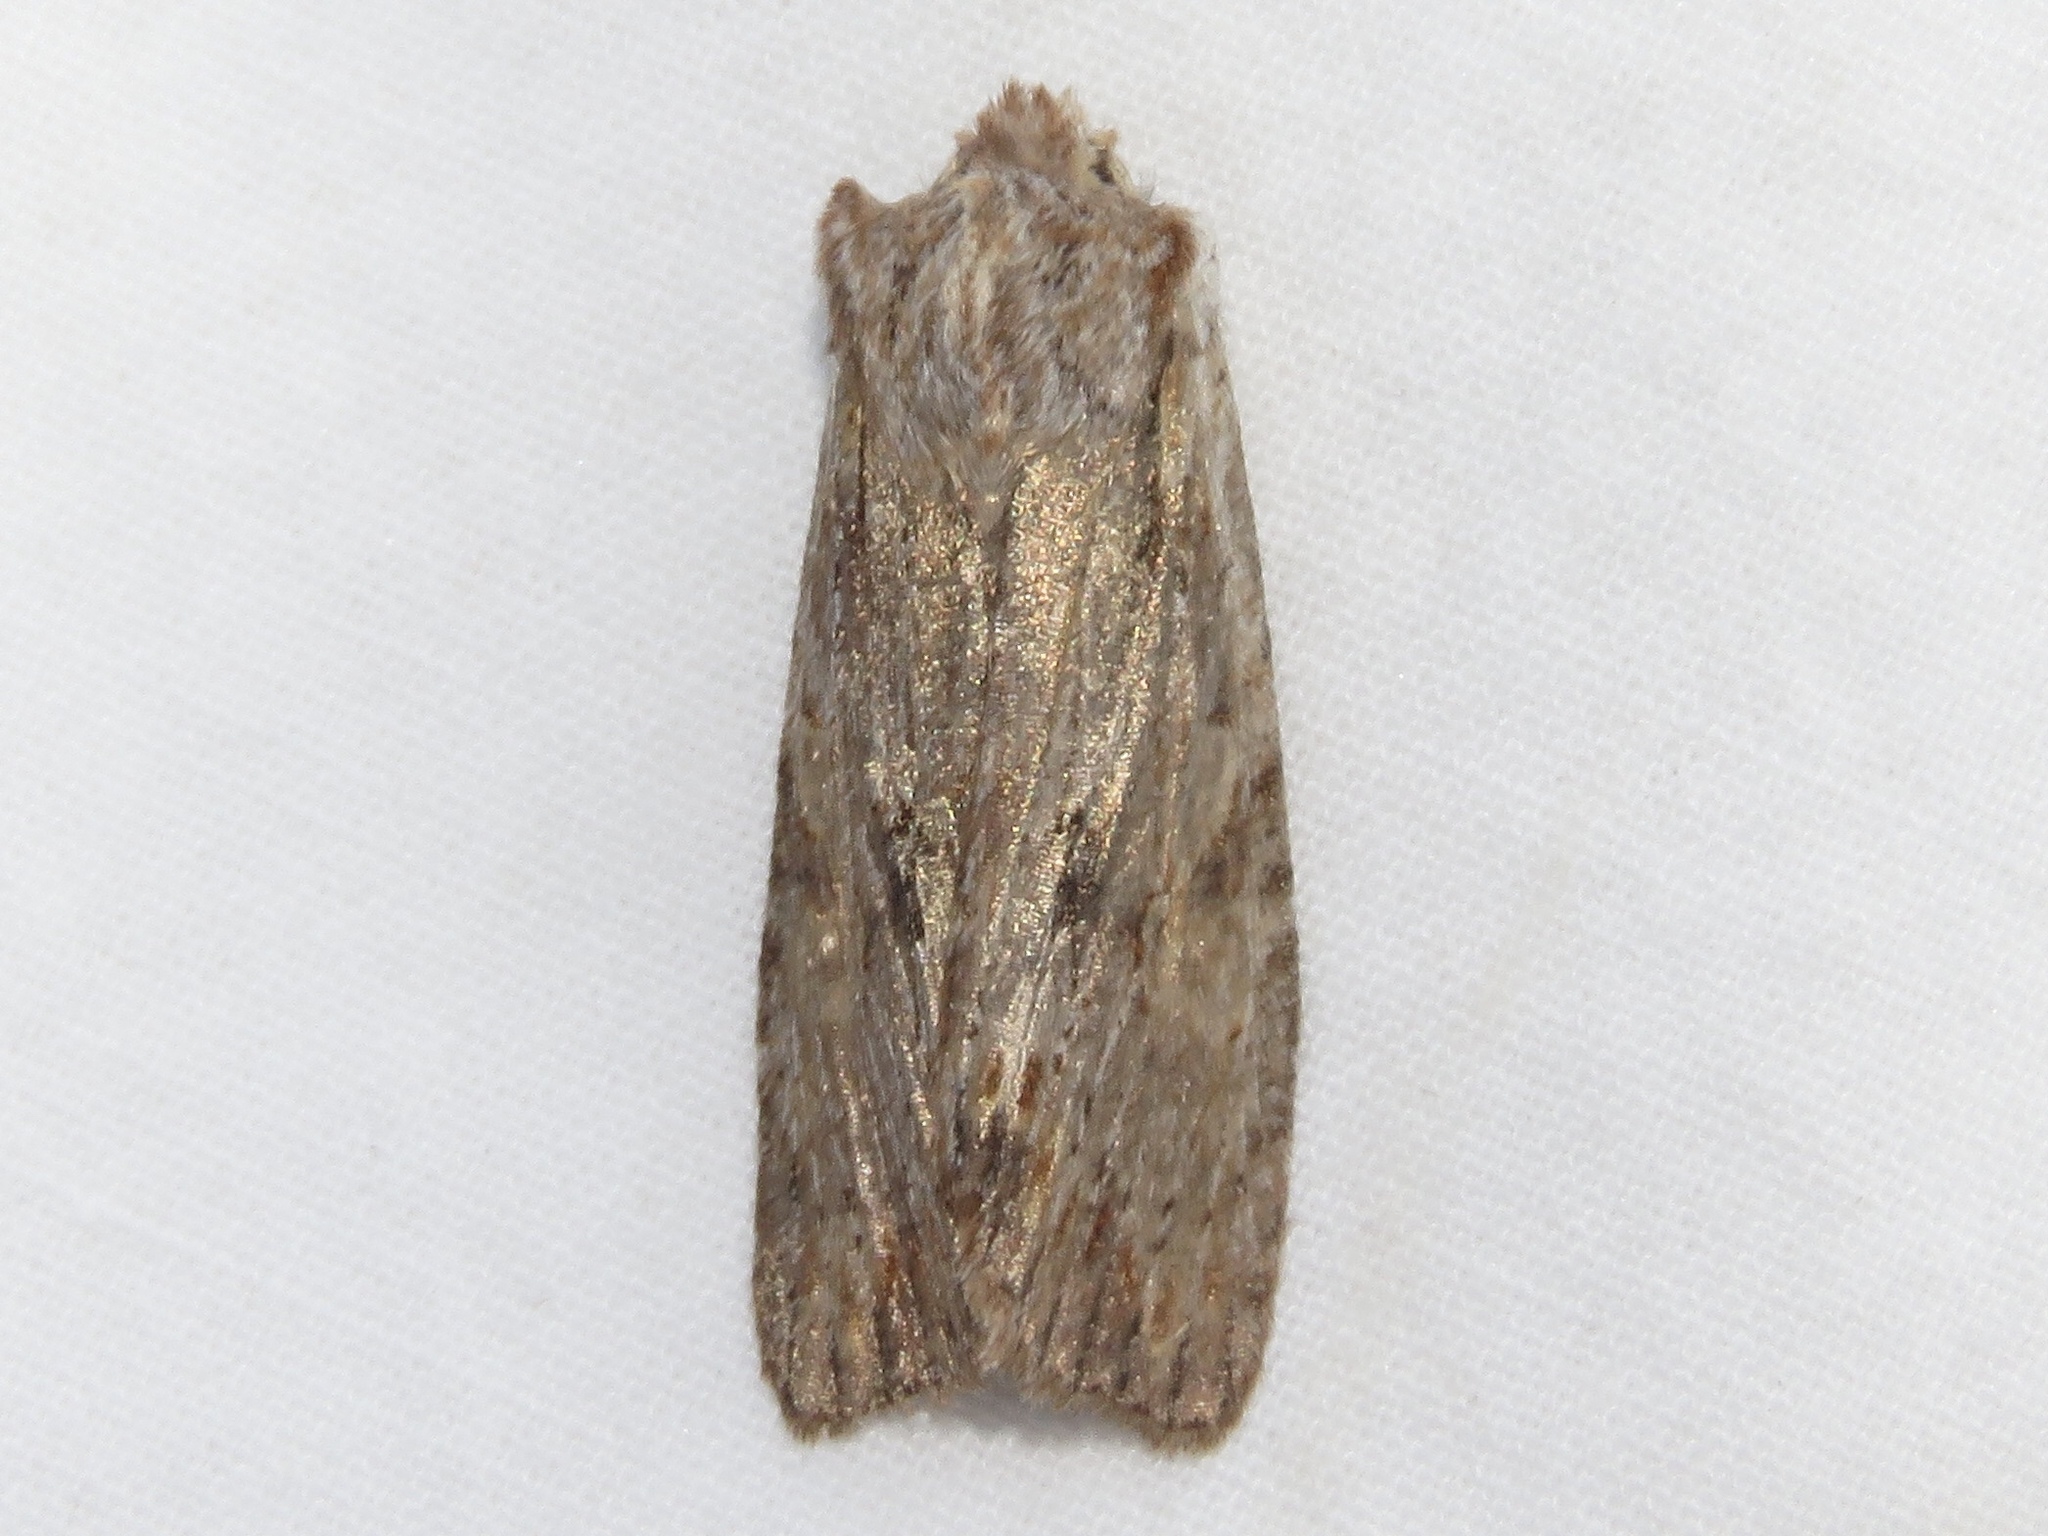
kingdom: Animalia
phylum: Arthropoda
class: Insecta
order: Lepidoptera
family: Noctuidae
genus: Lithophane
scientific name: Lithophane petulca
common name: Wanton pinion
